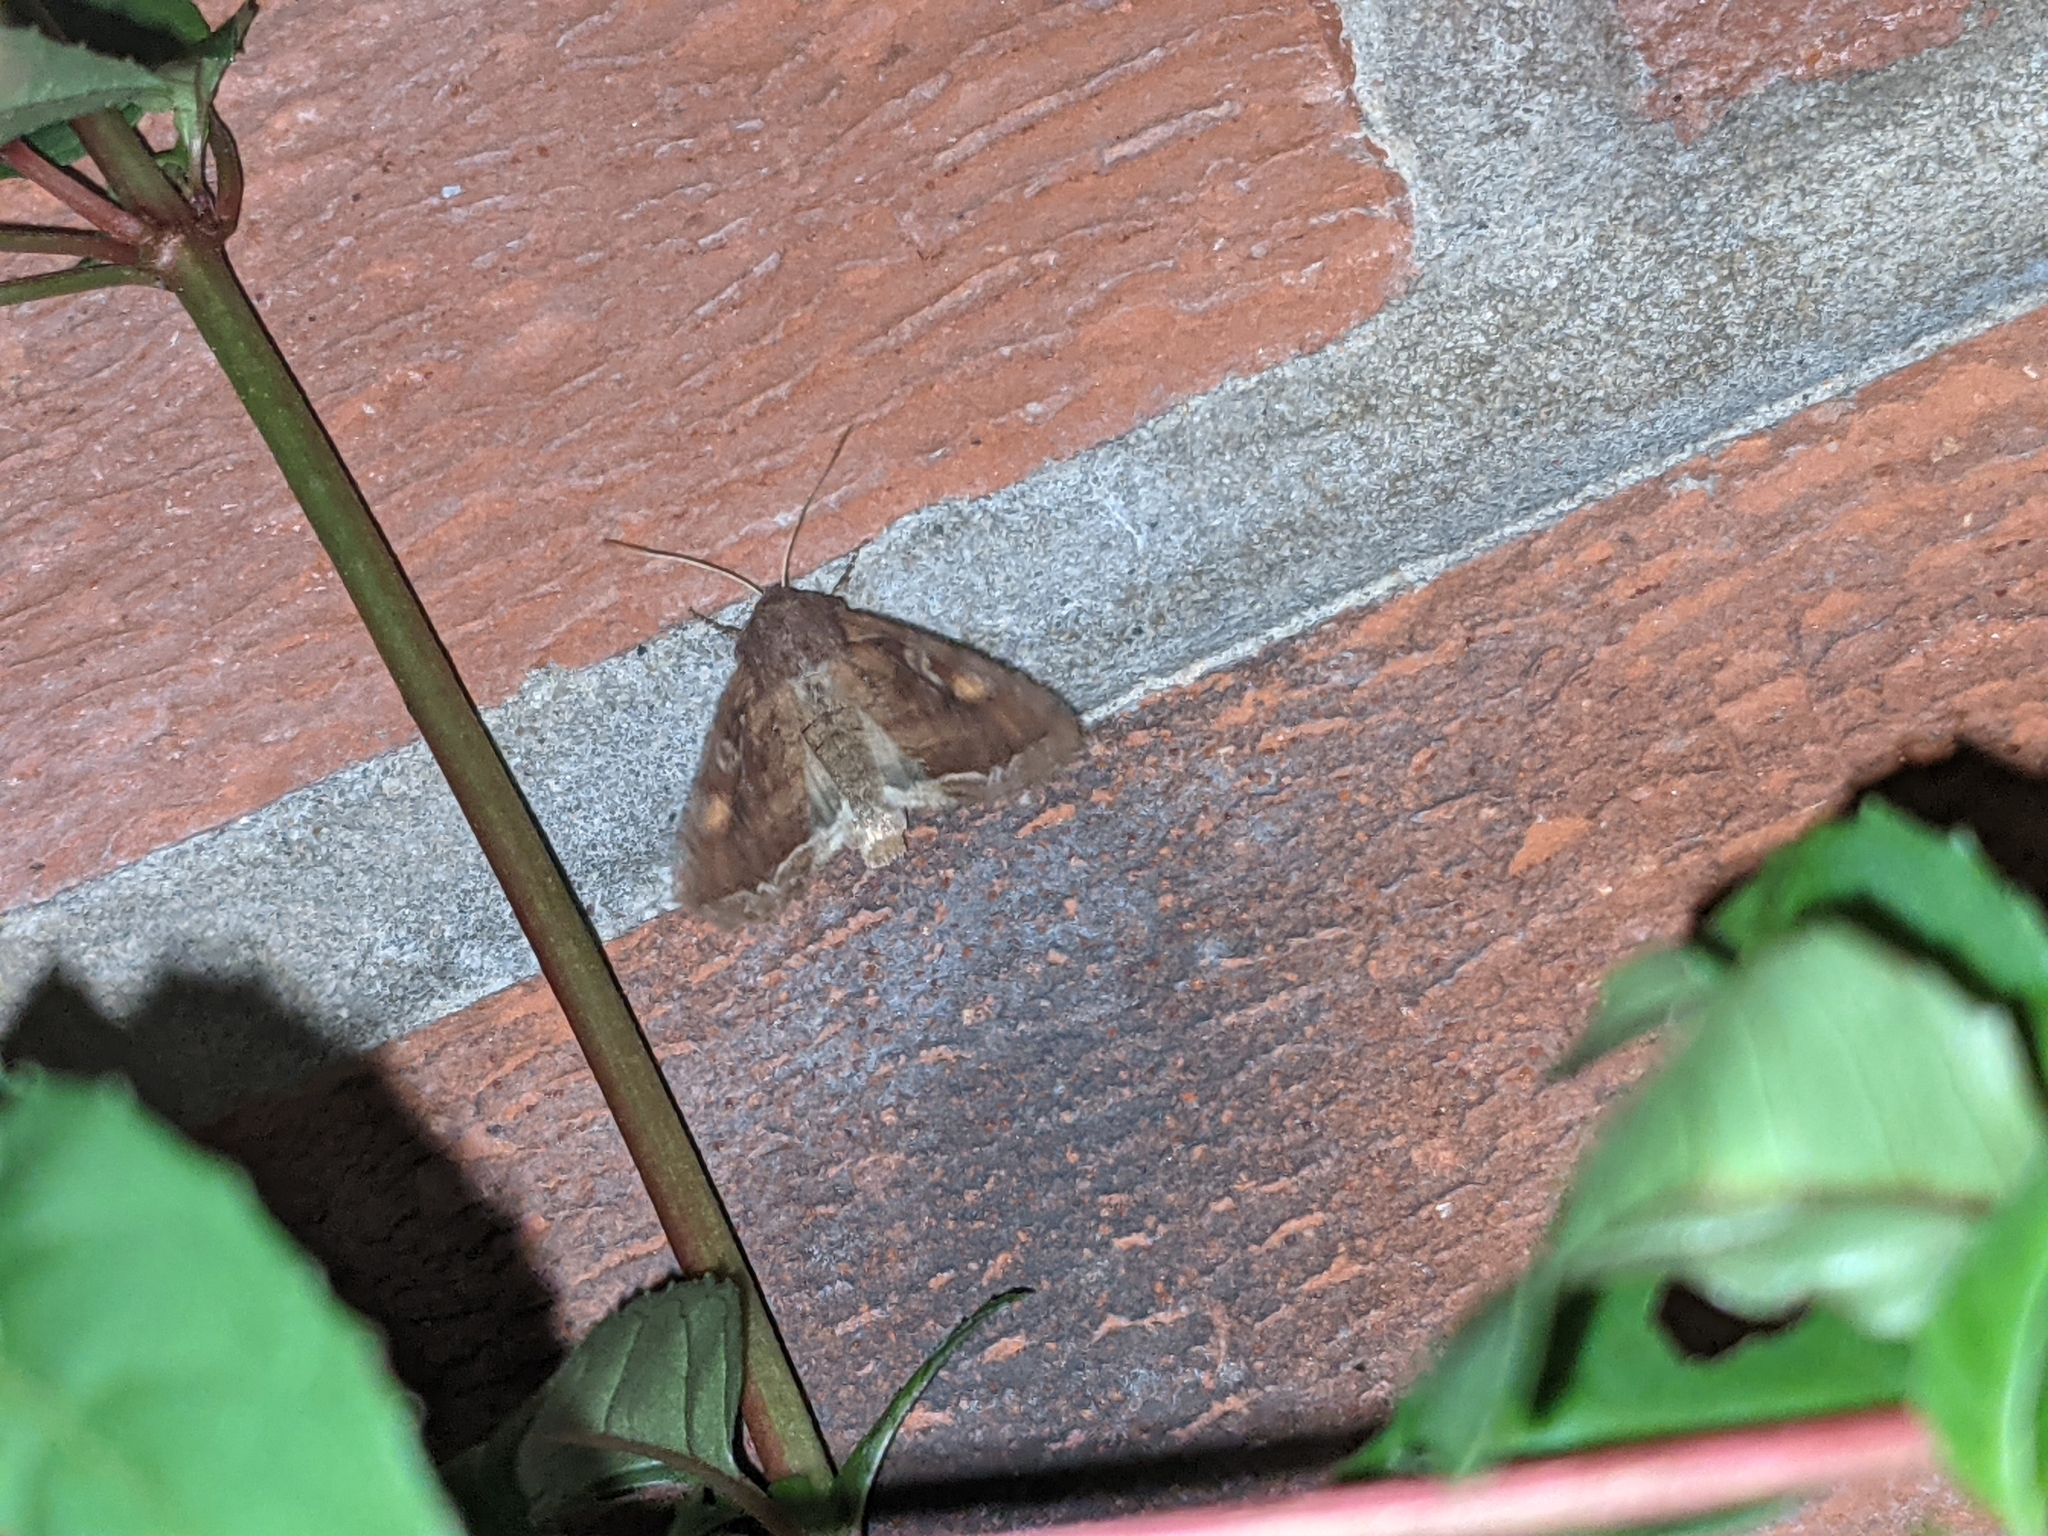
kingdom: Animalia
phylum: Arthropoda
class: Insecta
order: Lepidoptera
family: Noctuidae
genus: Lacanobia
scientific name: Lacanobia oleracea
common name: Bright-line brown-eye
